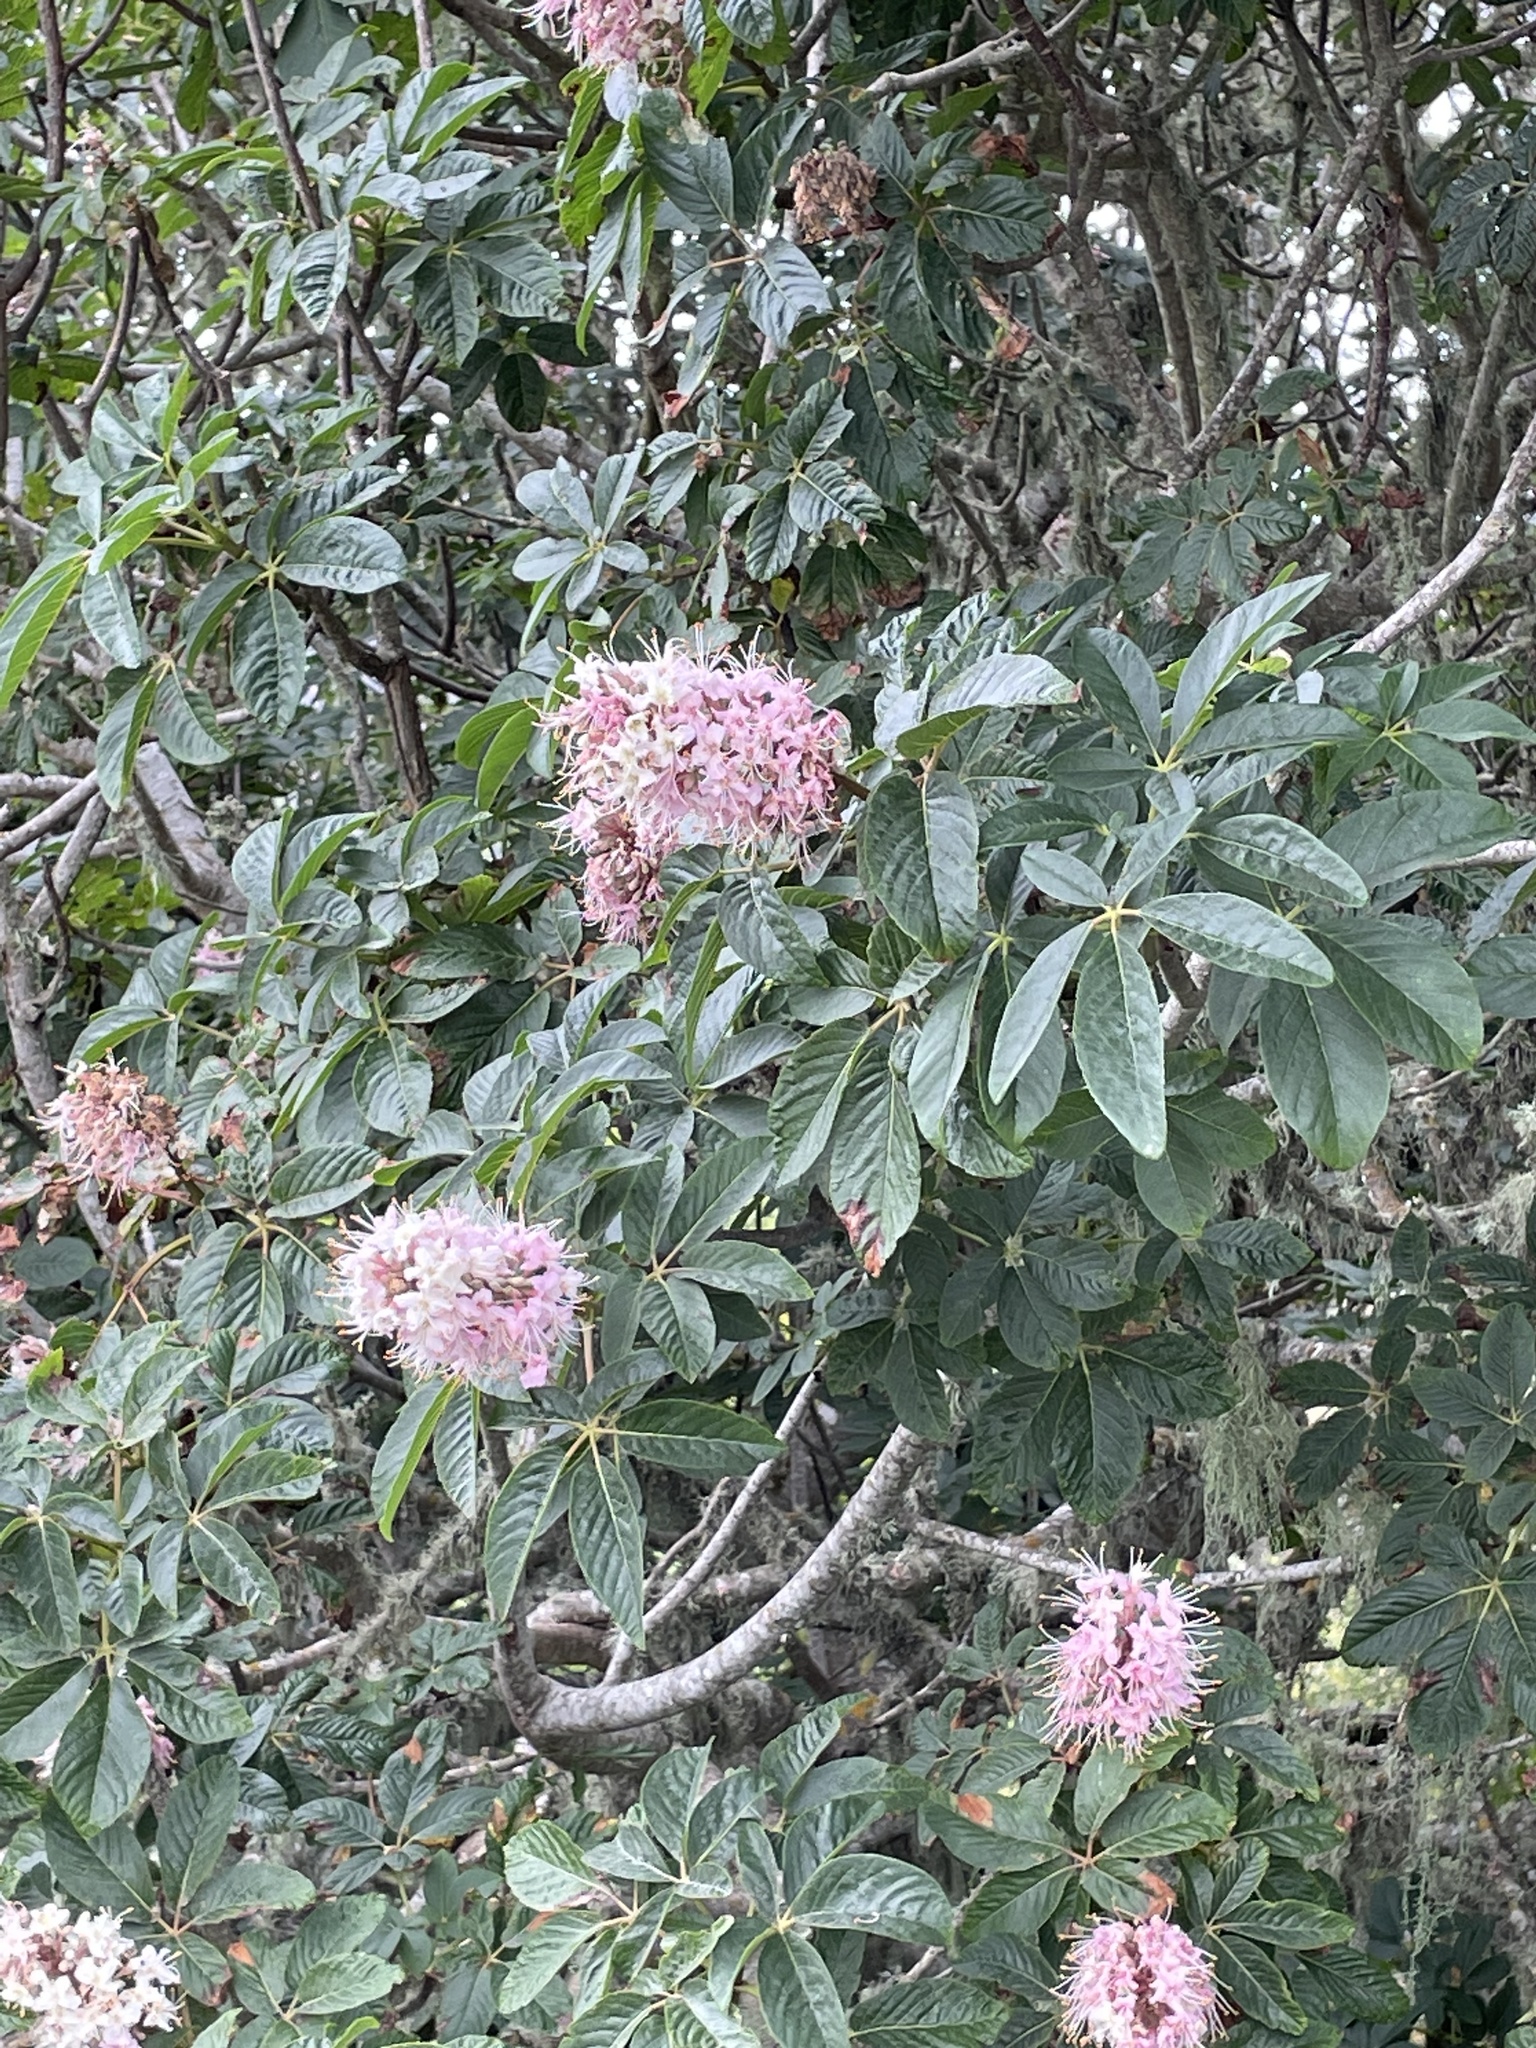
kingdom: Plantae
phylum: Tracheophyta
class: Magnoliopsida
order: Sapindales
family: Sapindaceae
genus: Aesculus
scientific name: Aesculus californica
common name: California buckeye
